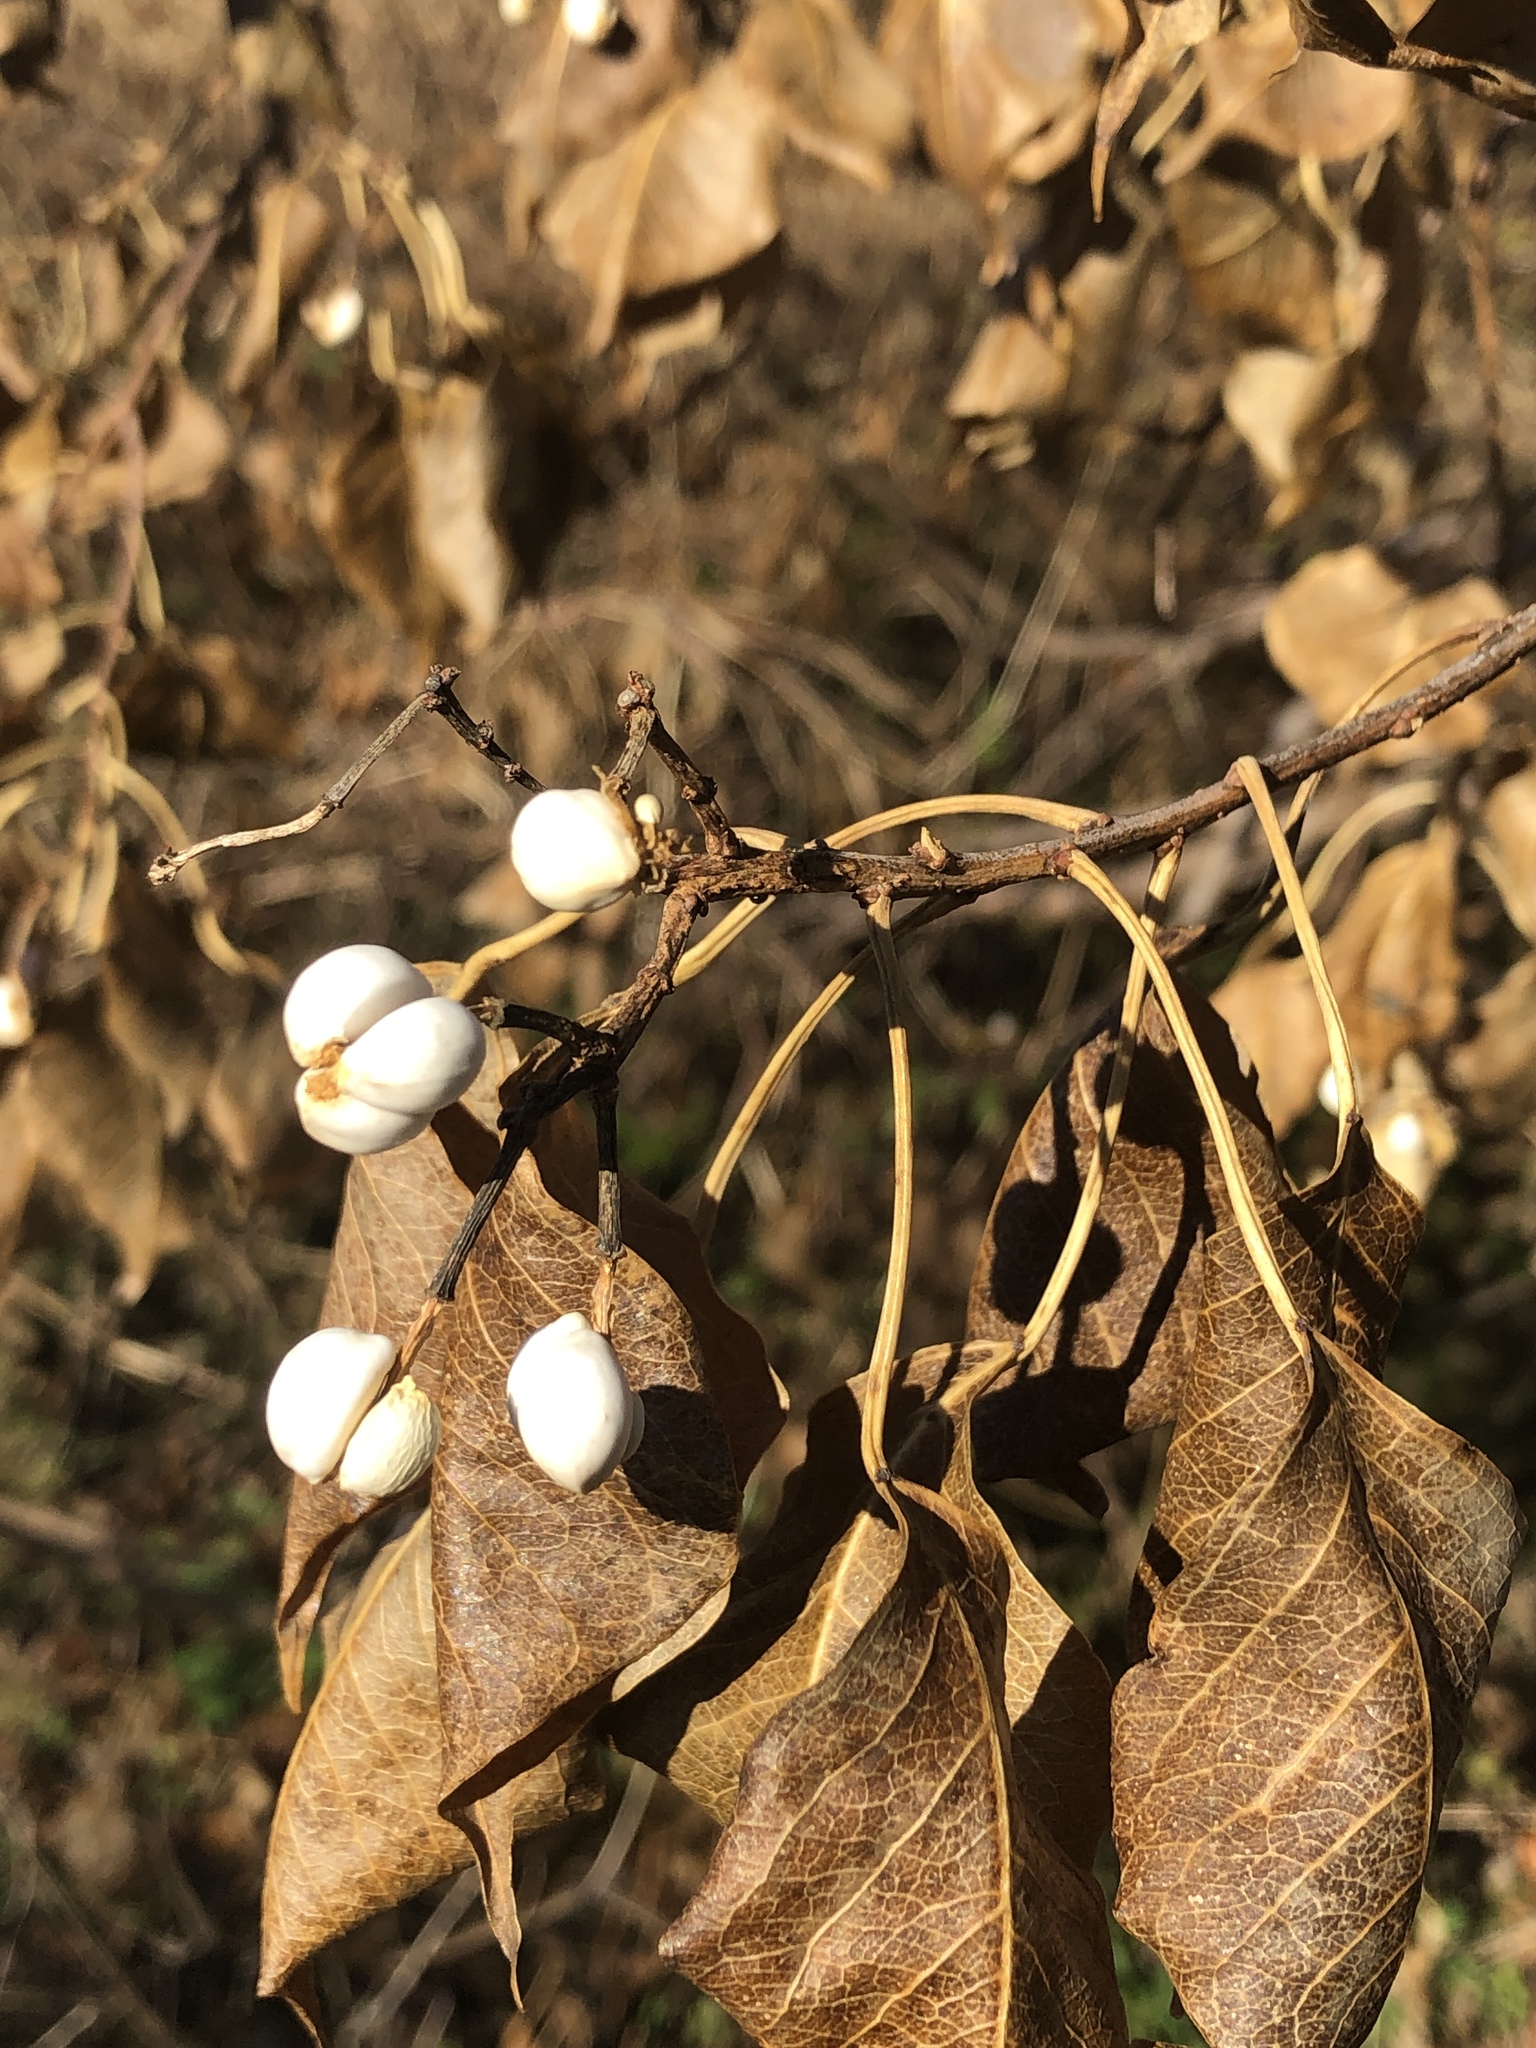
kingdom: Plantae
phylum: Tracheophyta
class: Magnoliopsida
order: Malpighiales
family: Euphorbiaceae
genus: Triadica
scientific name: Triadica sebifera
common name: Chinese tallow
